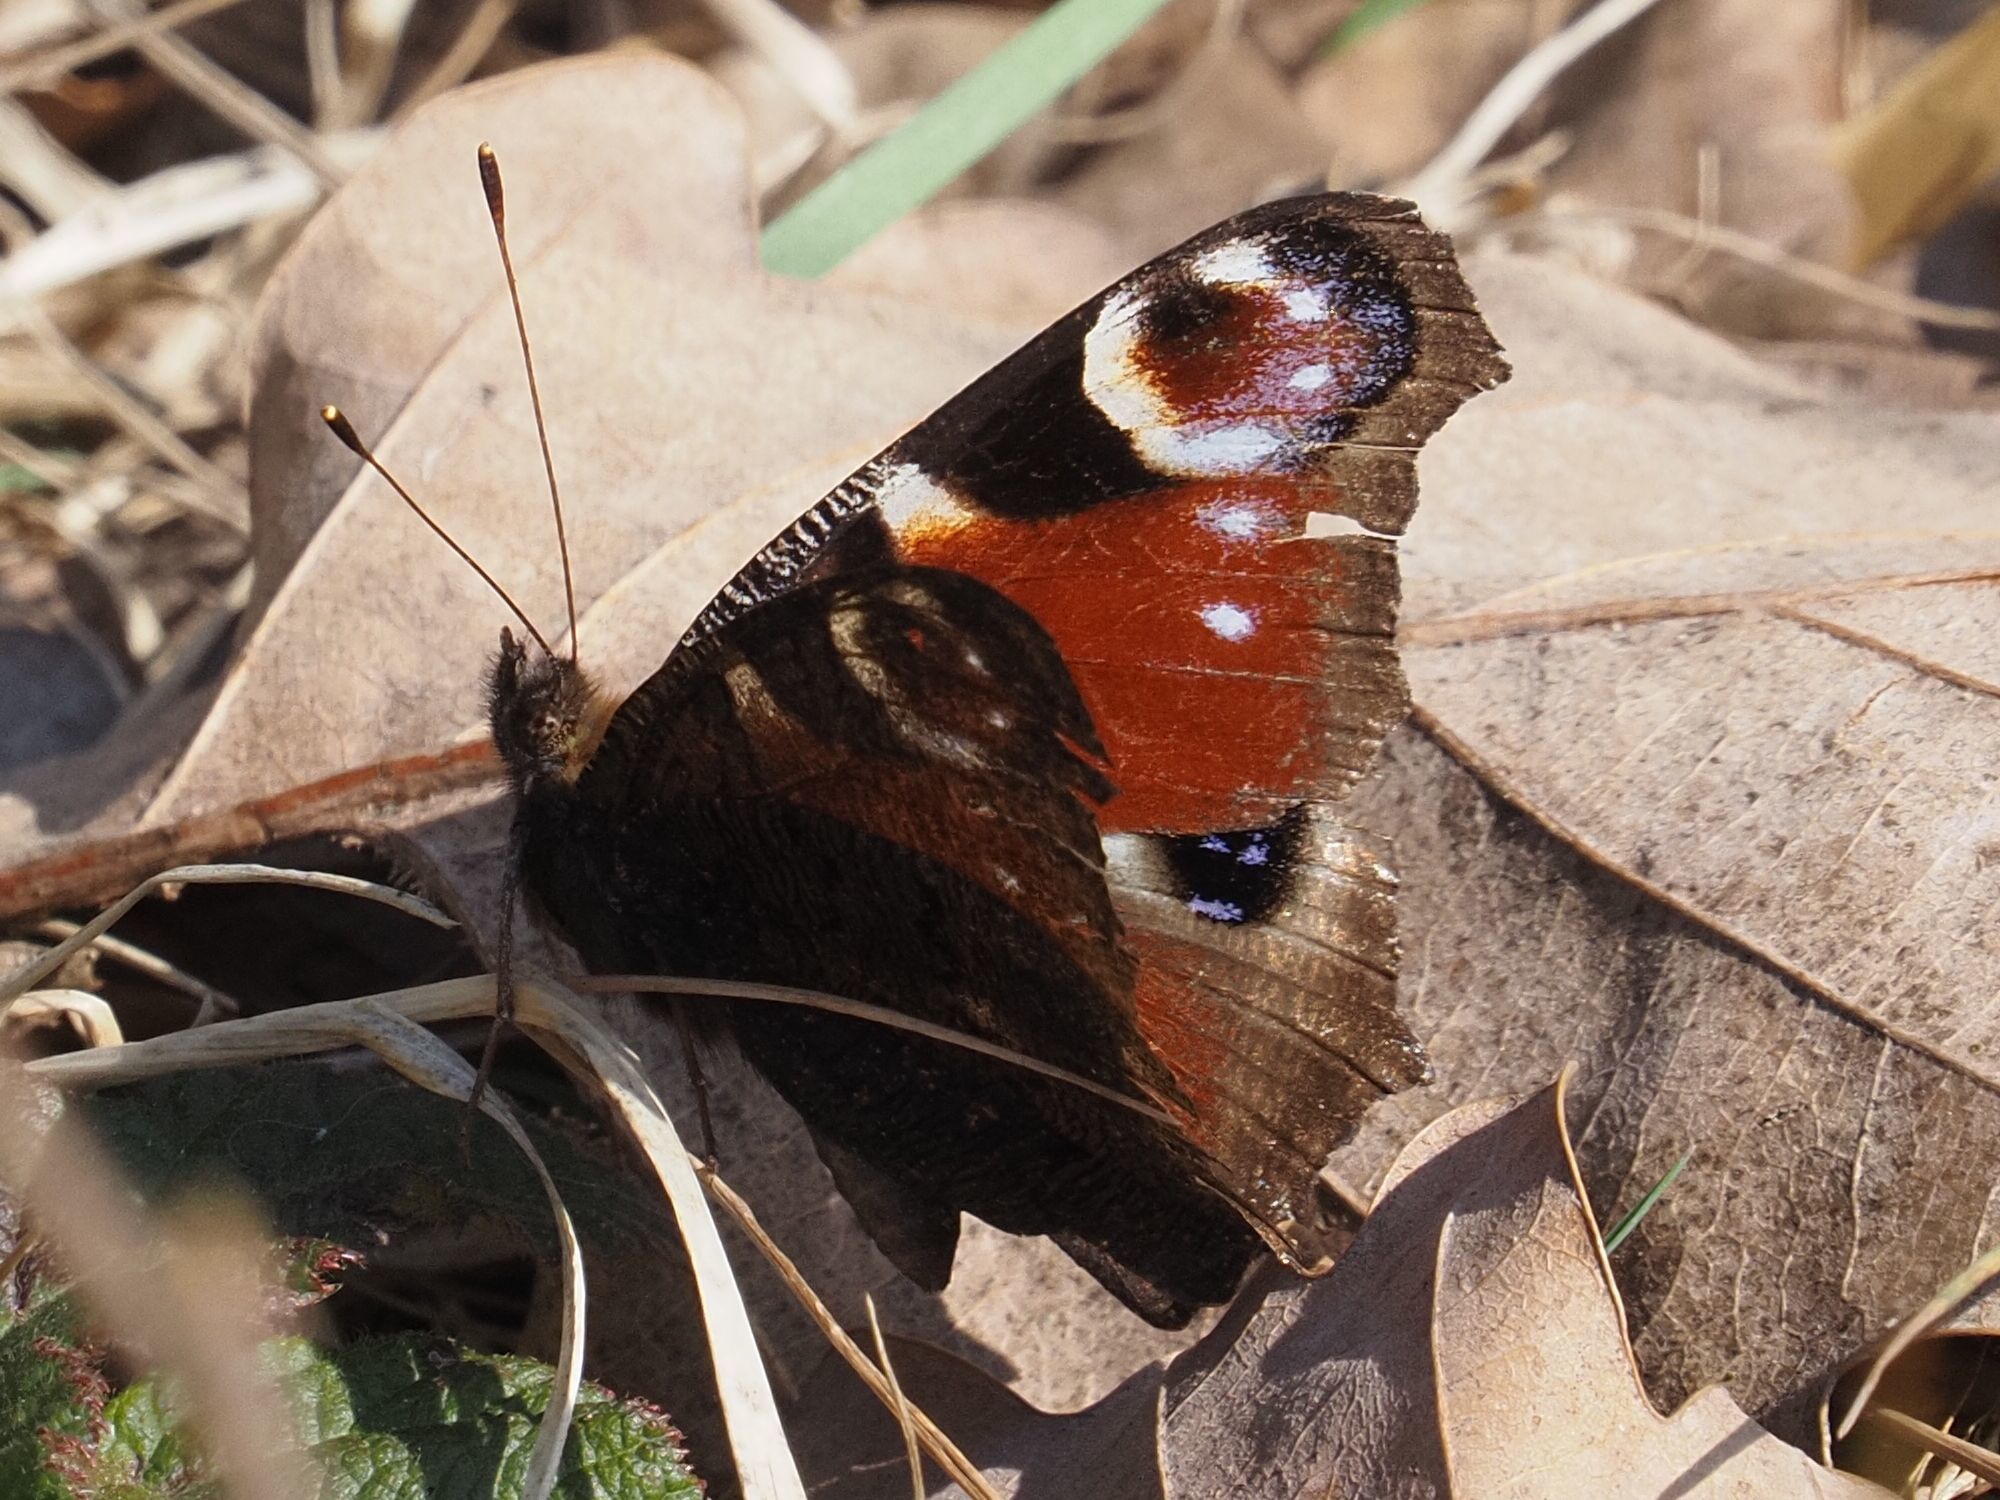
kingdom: Animalia
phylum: Arthropoda
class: Insecta
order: Lepidoptera
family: Nymphalidae
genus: Aglais
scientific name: Aglais io
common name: Peacock
